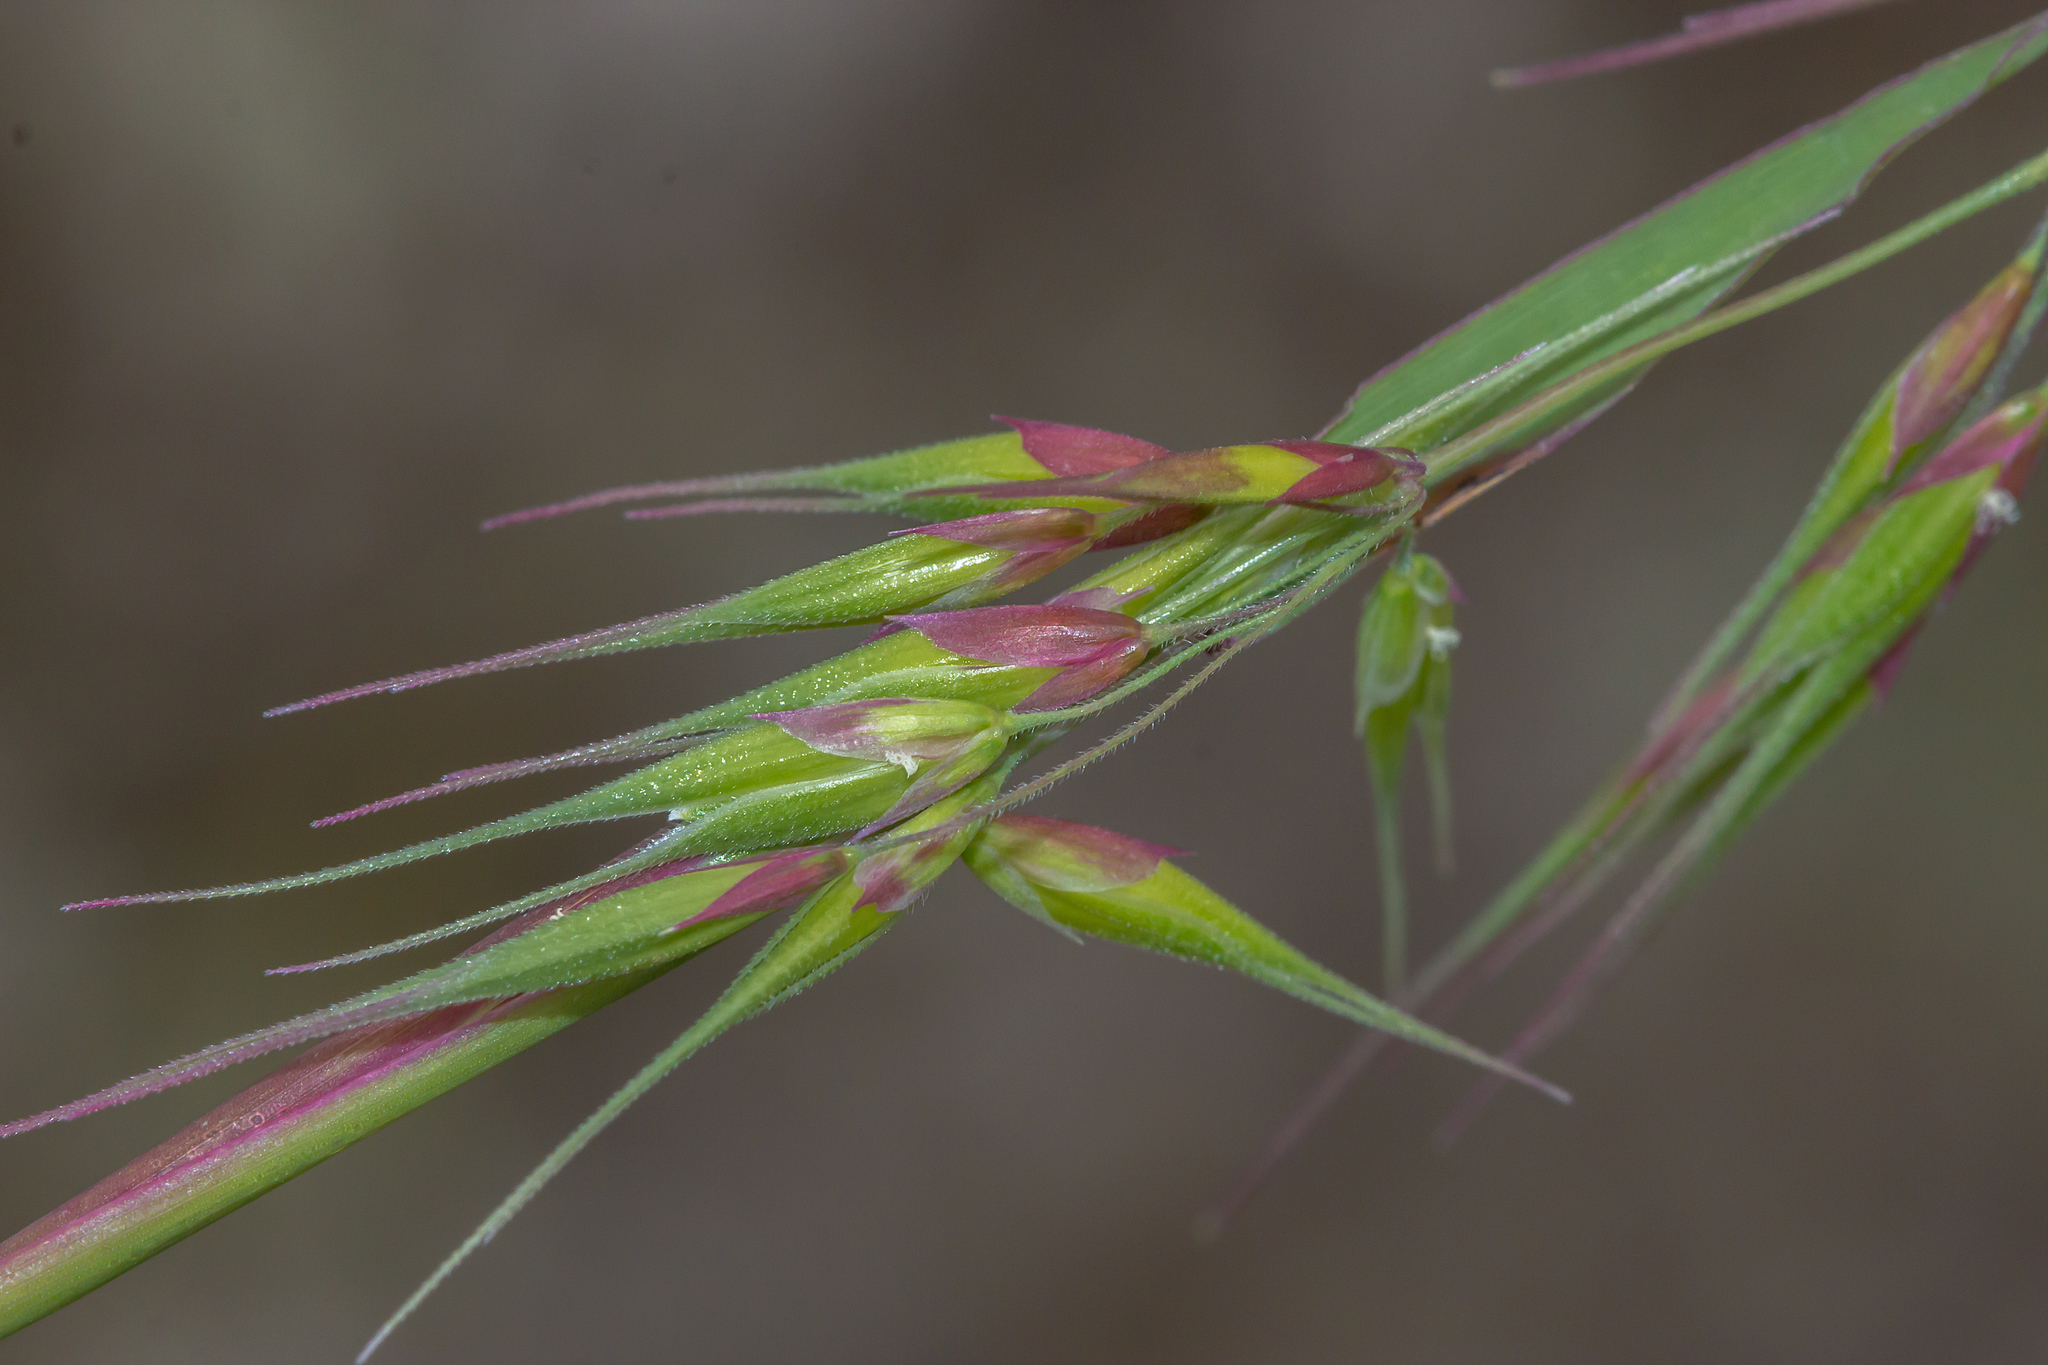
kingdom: Plantae
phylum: Tracheophyta
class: Liliopsida
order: Poales
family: Poaceae
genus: Ehrharta
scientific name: Ehrharta longiflora
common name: Longflowered veldtgrass
